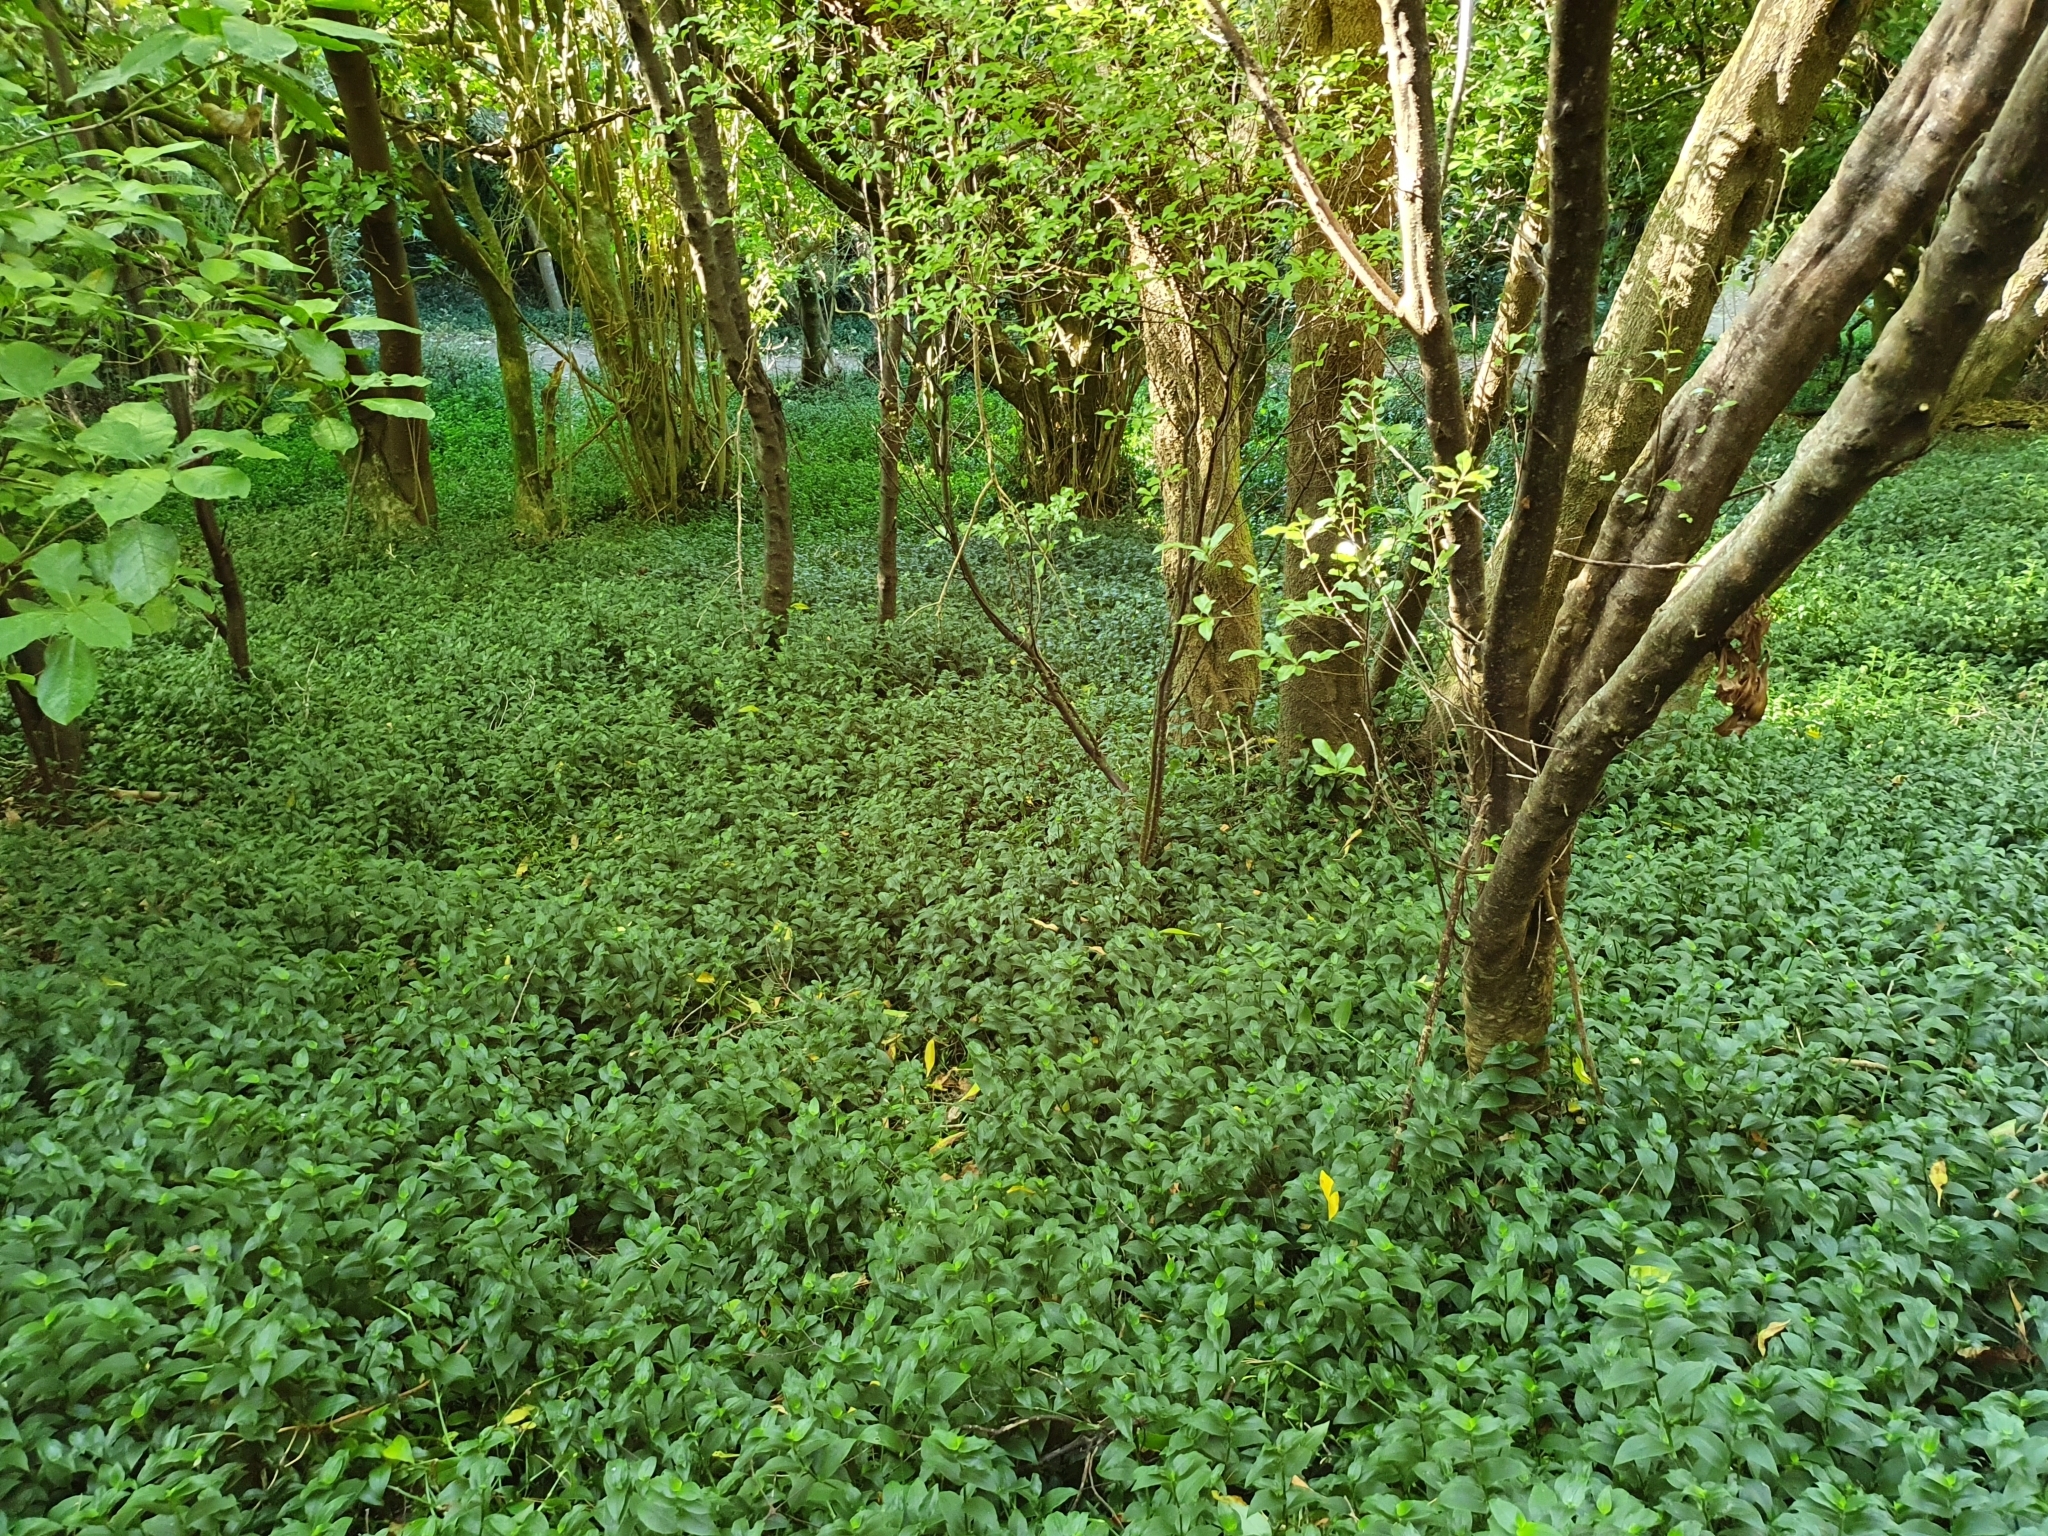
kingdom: Plantae
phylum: Tracheophyta
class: Liliopsida
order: Commelinales
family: Commelinaceae
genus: Tradescantia
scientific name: Tradescantia fluminensis
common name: Wandering-jew
